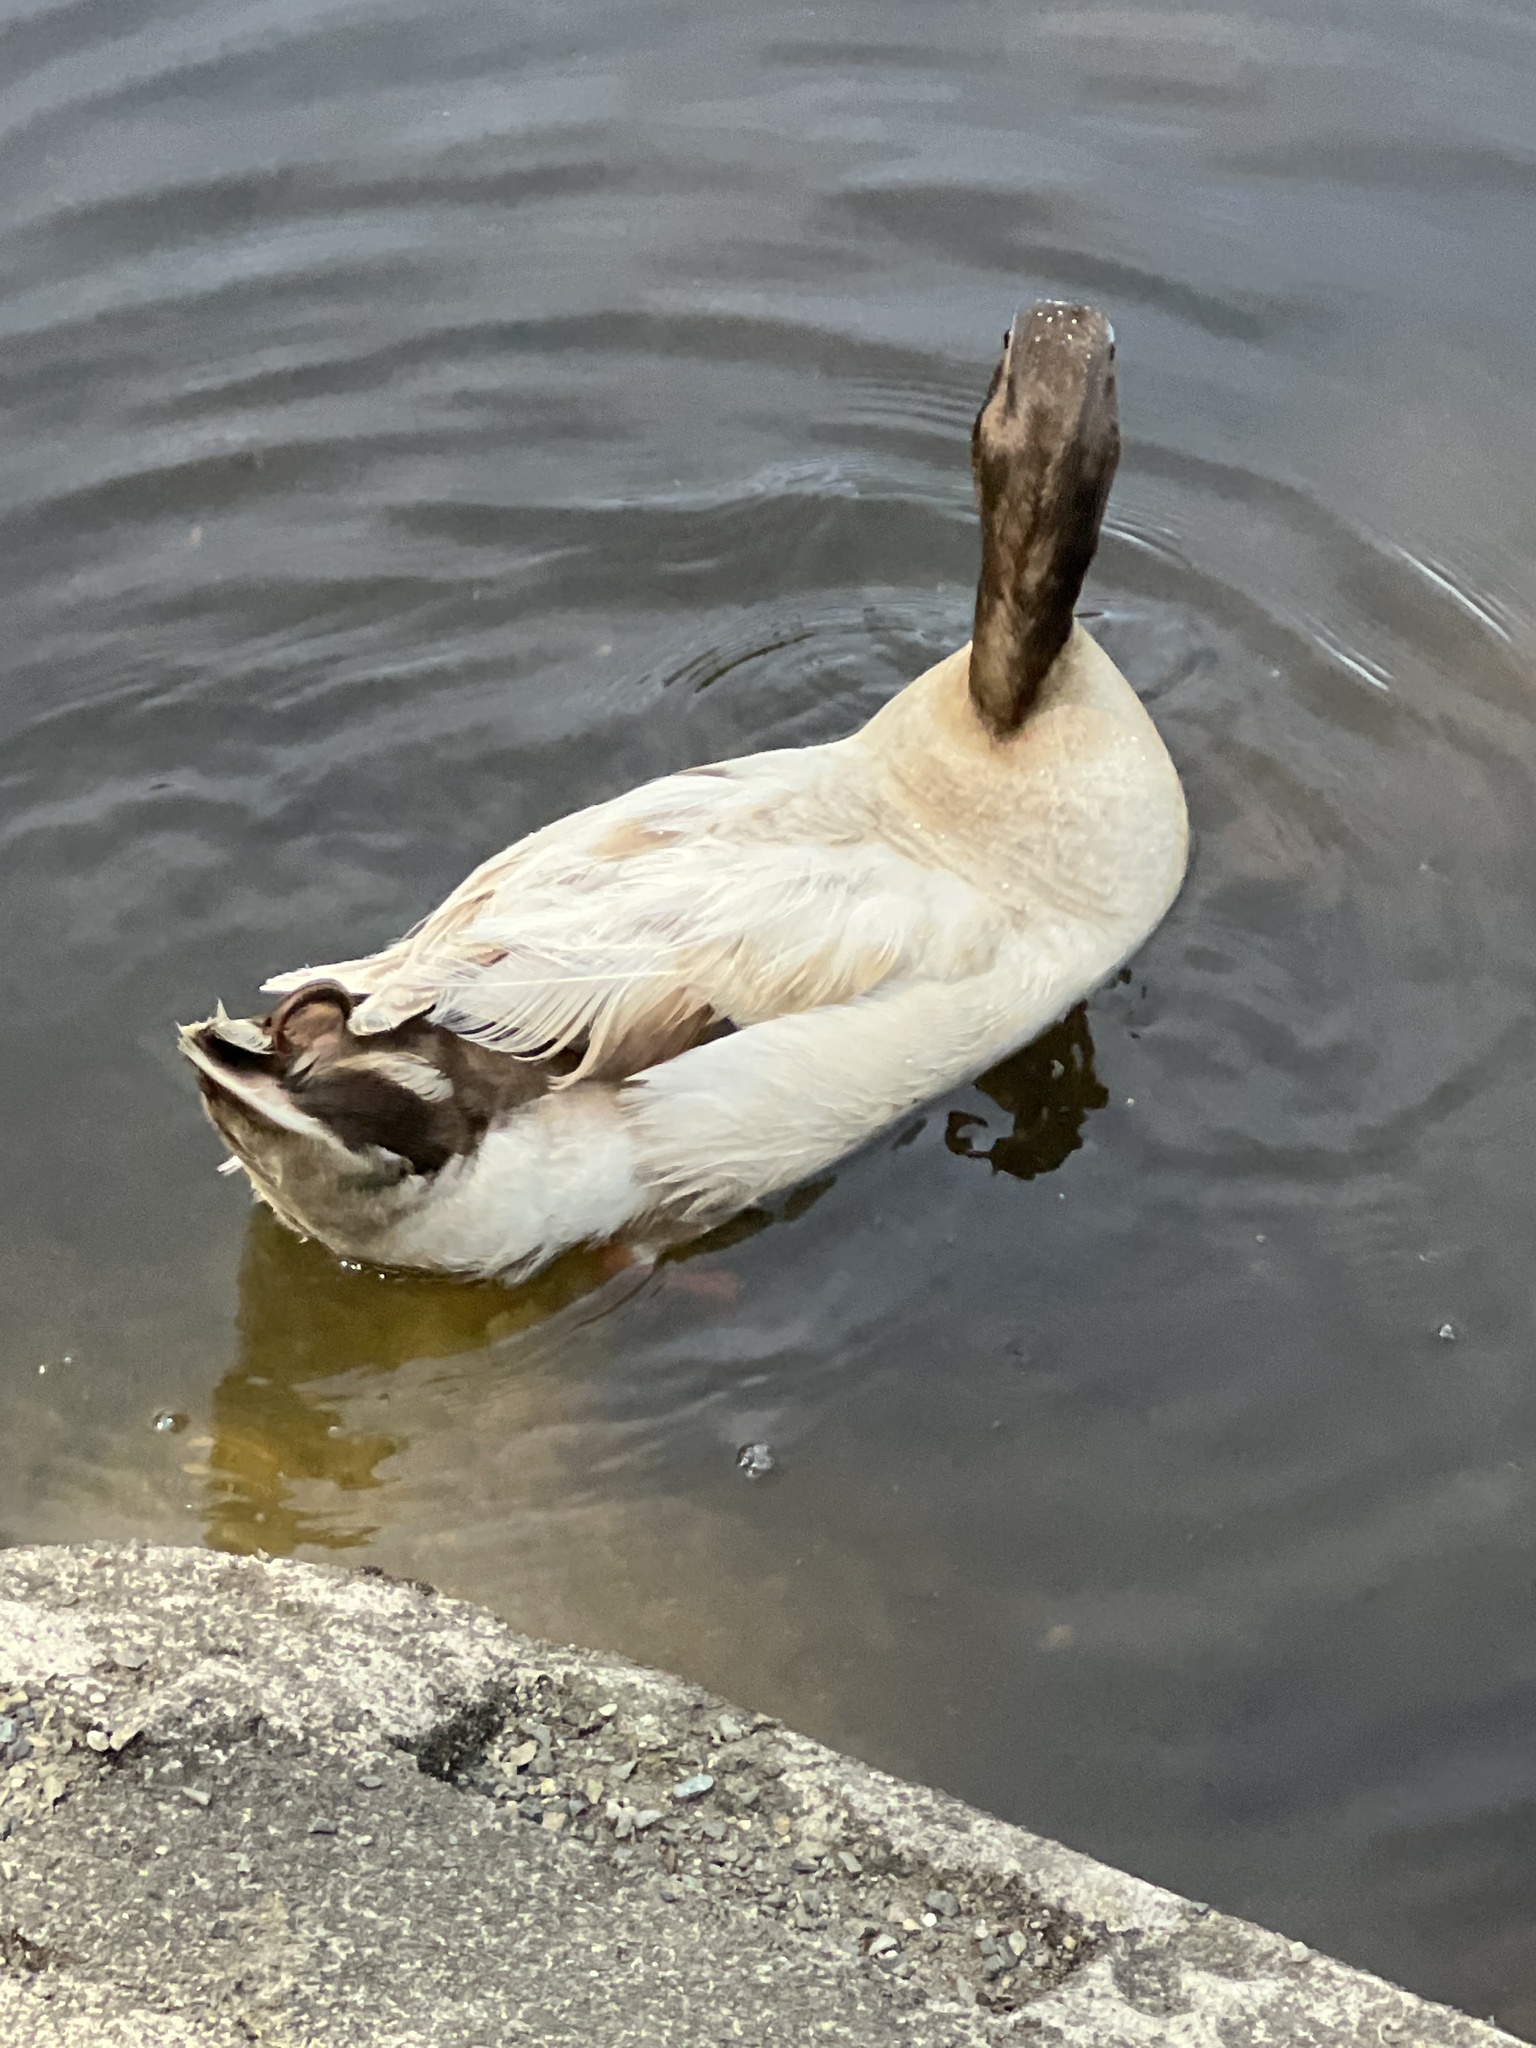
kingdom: Animalia
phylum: Chordata
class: Aves
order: Anseriformes
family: Anatidae
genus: Anas
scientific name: Anas platyrhynchos
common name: Mallard
